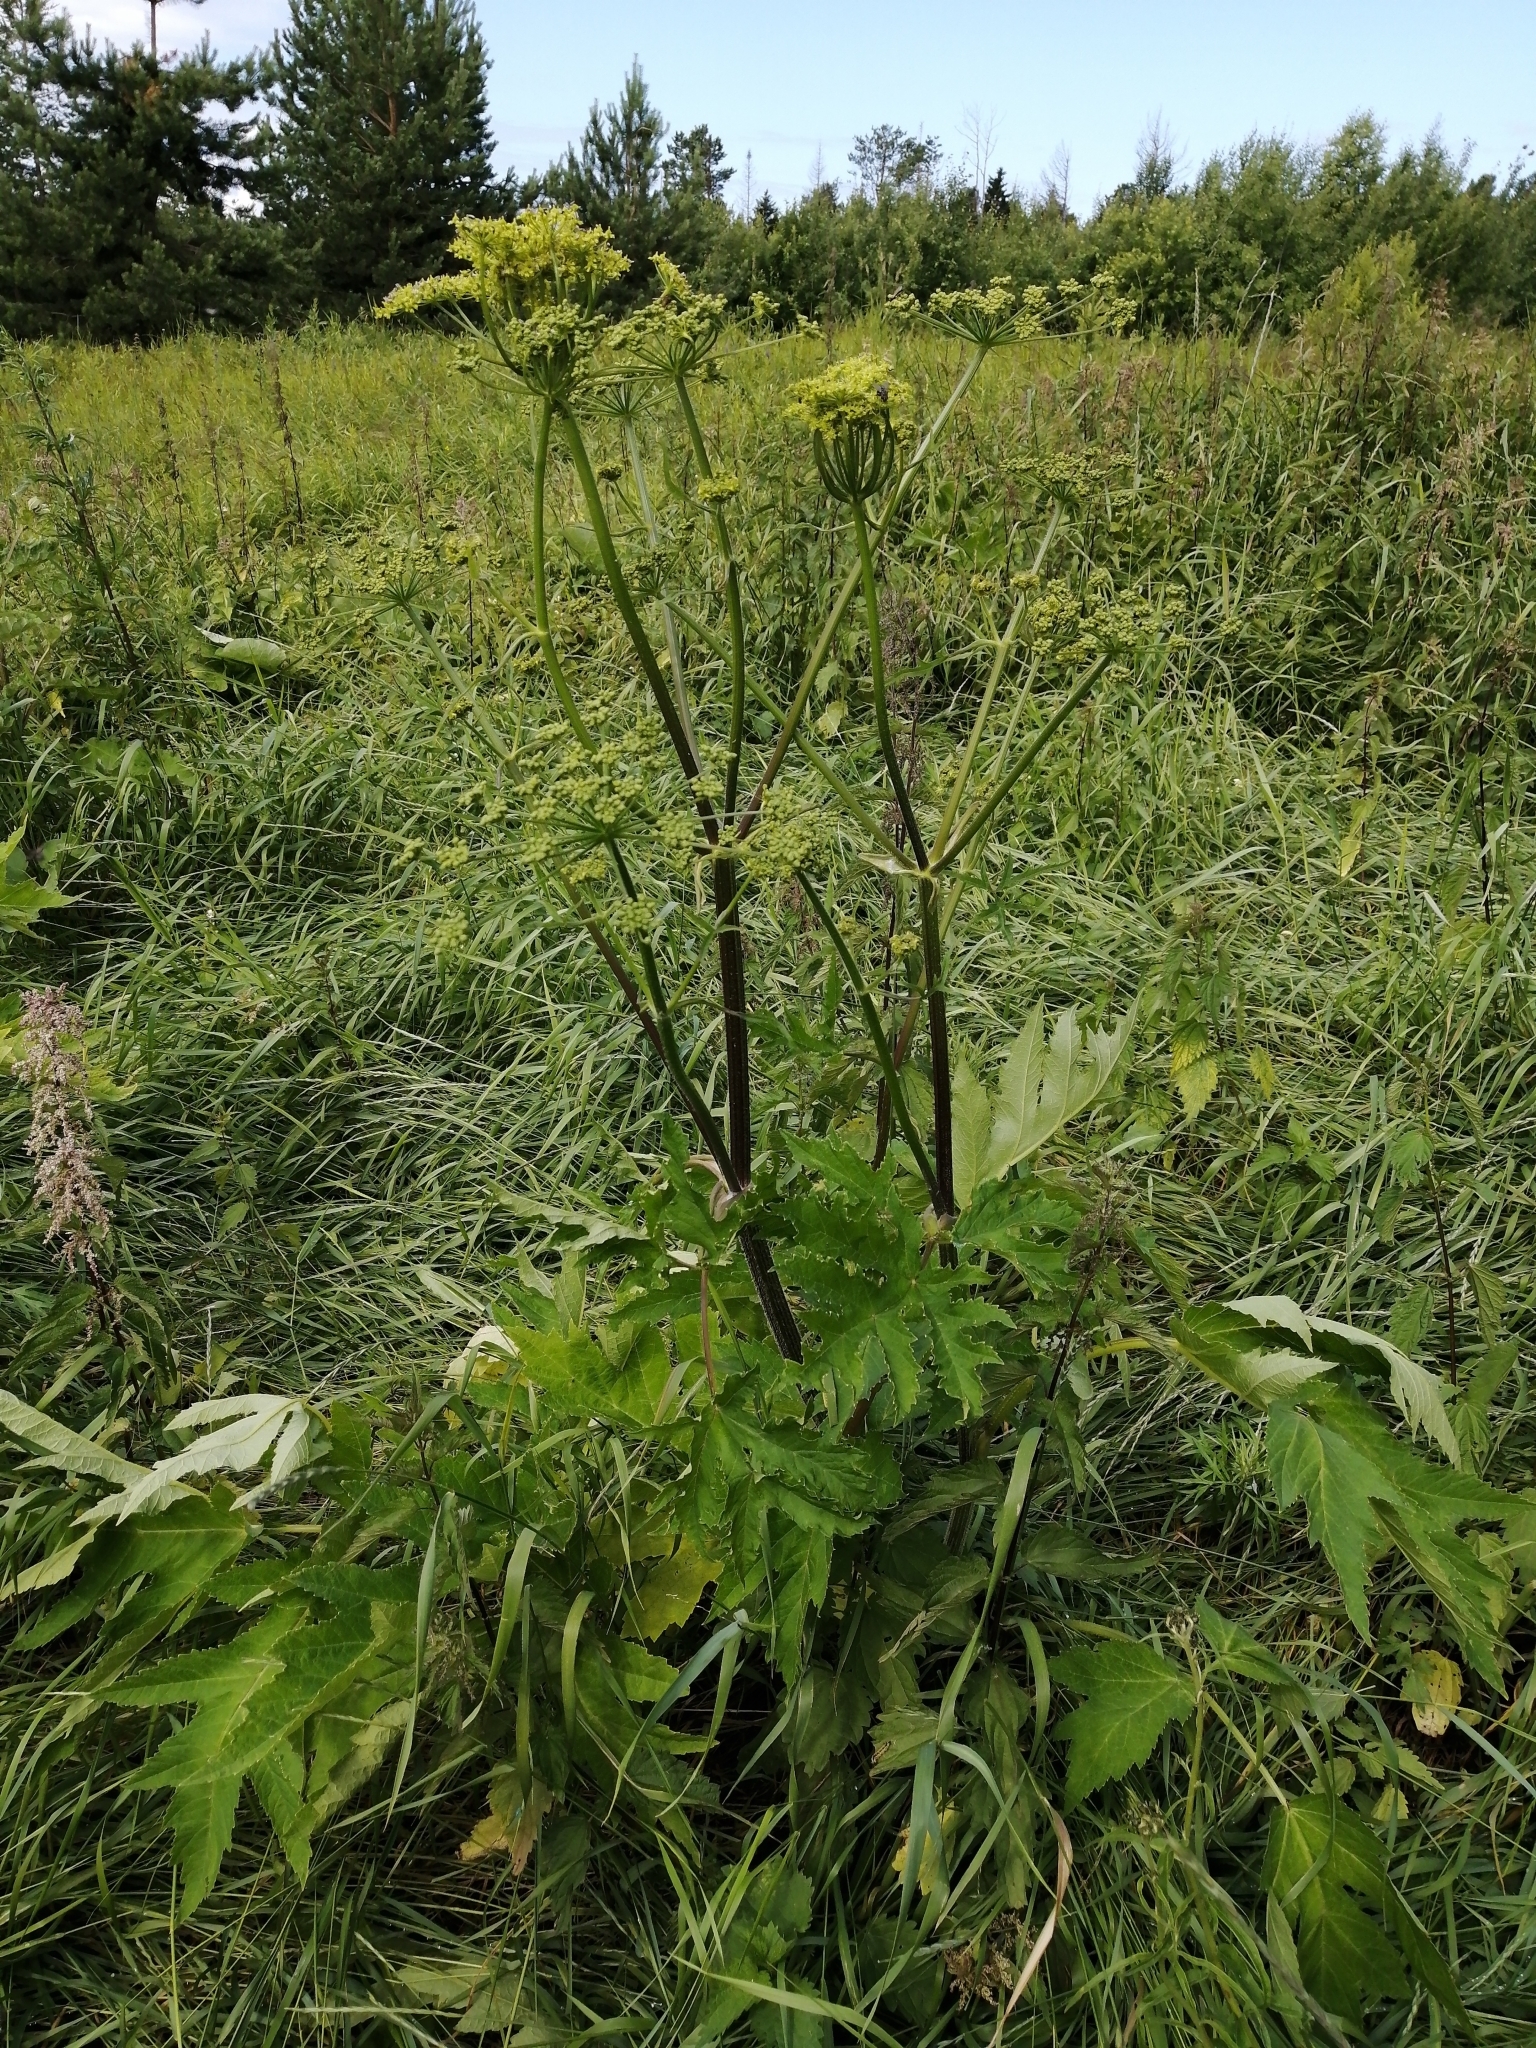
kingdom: Plantae
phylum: Tracheophyta
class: Magnoliopsida
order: Apiales
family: Apiaceae
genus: Heracleum
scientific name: Heracleum sphondylium
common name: Hogweed
